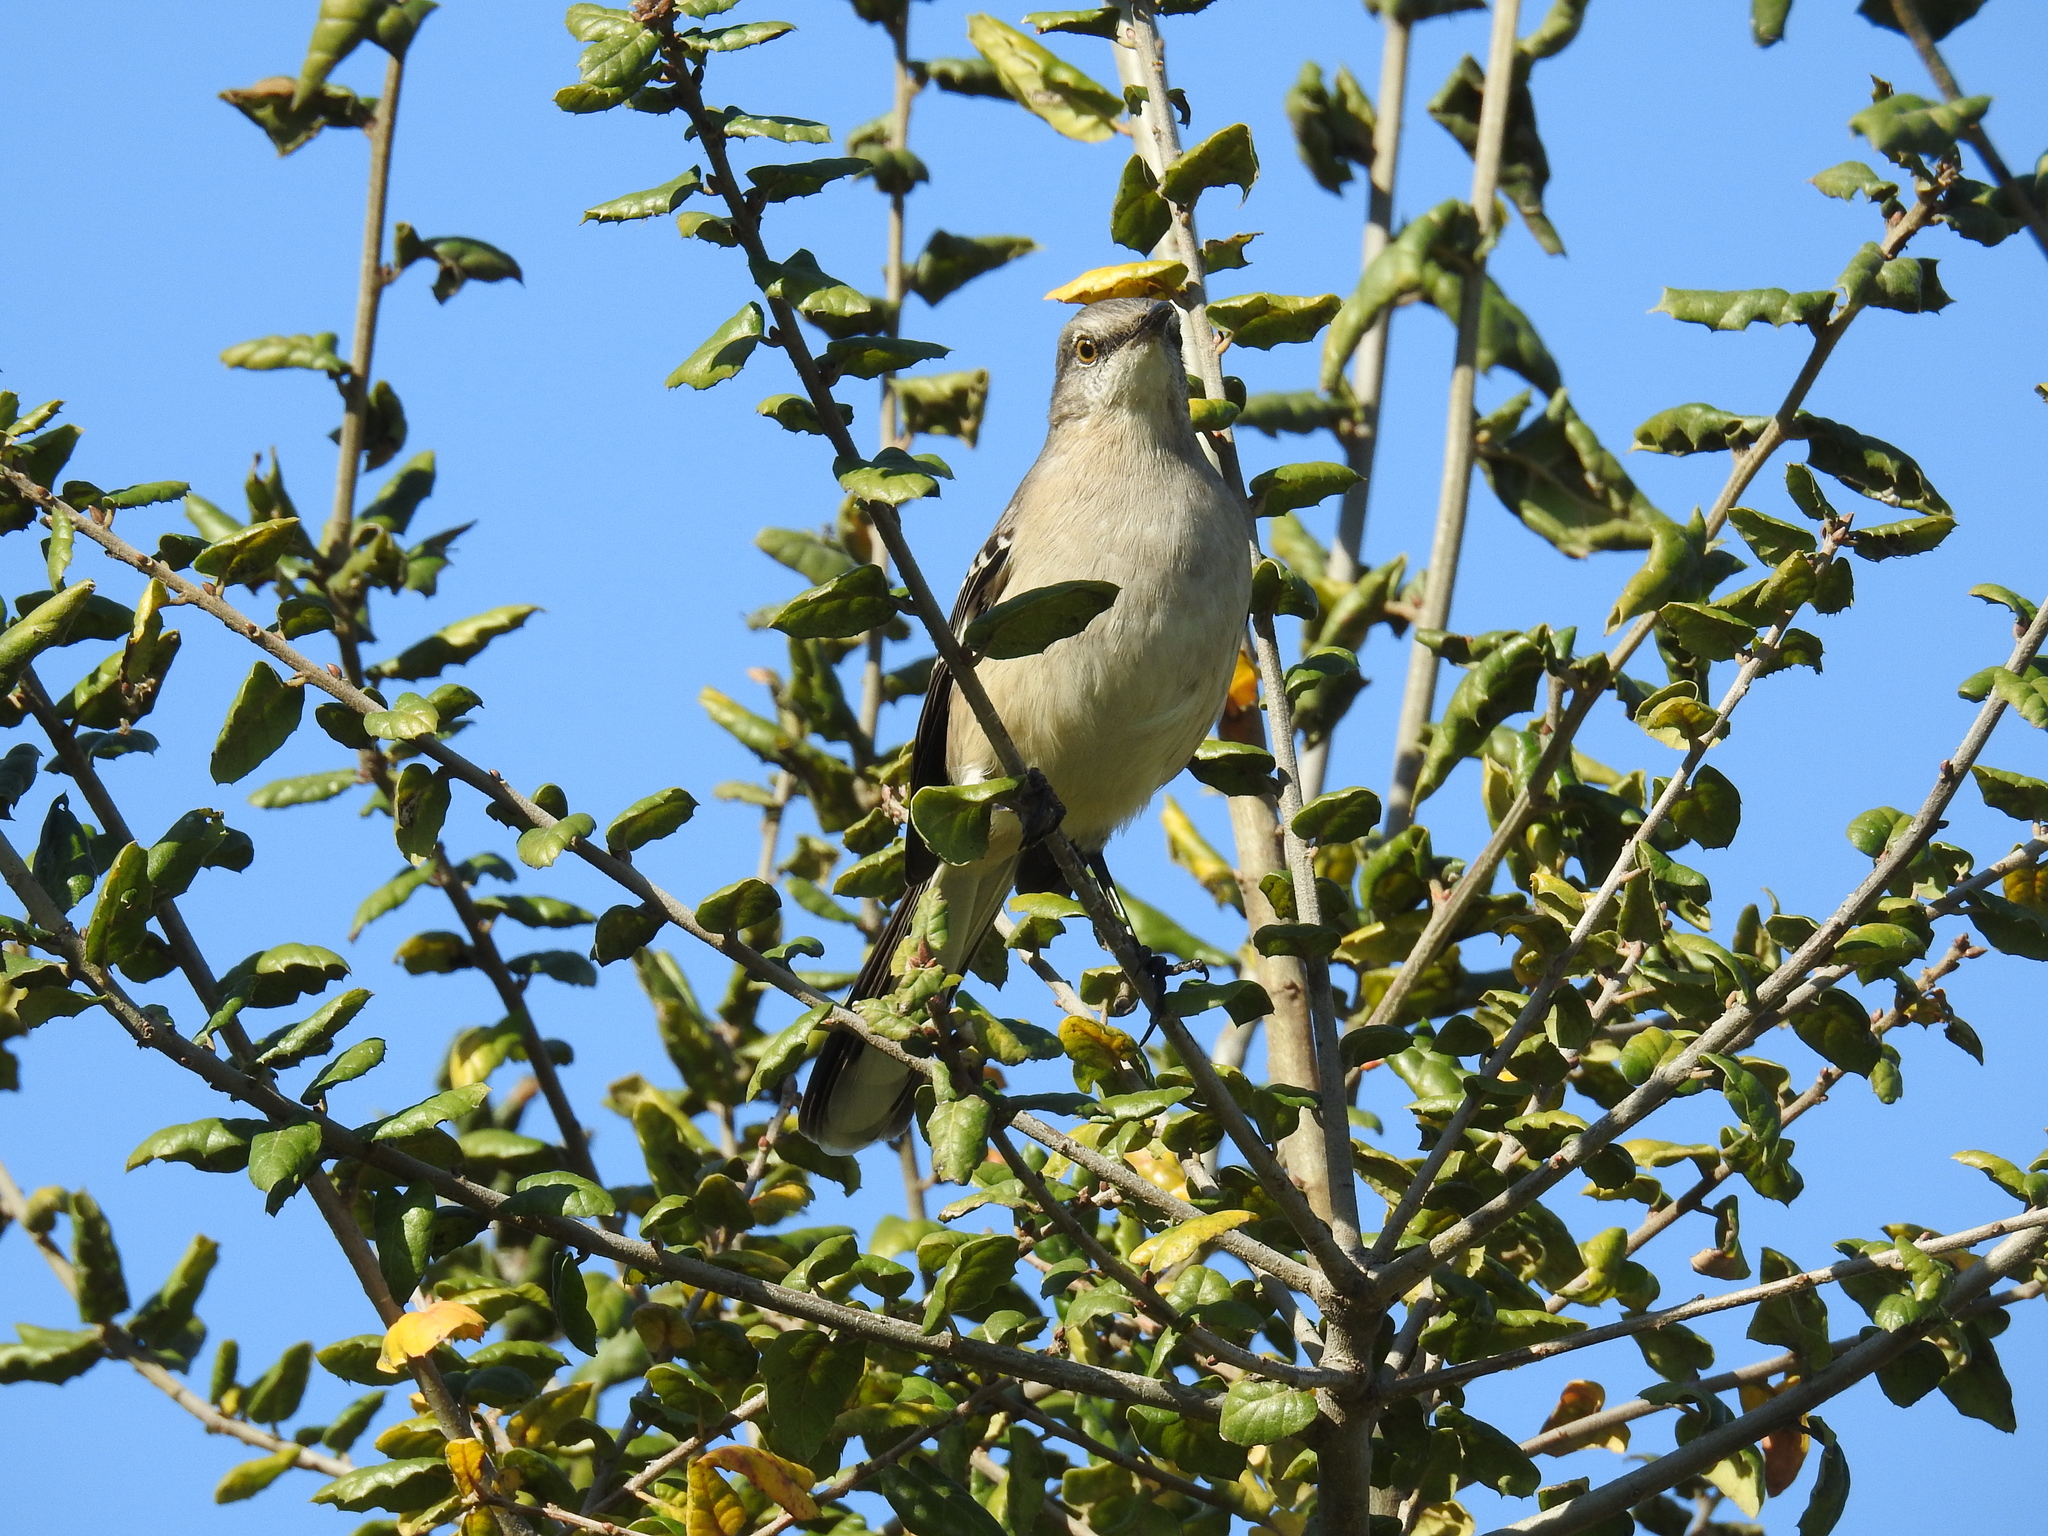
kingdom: Animalia
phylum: Chordata
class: Aves
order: Passeriformes
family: Mimidae
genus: Mimus
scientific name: Mimus polyglottos
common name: Northern mockingbird
